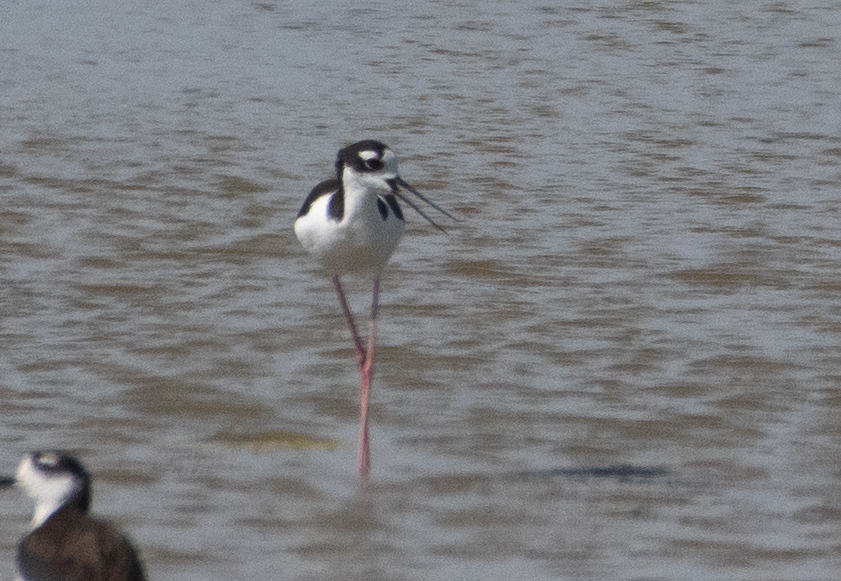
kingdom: Animalia
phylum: Chordata
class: Aves
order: Charadriiformes
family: Recurvirostridae
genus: Himantopus
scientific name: Himantopus mexicanus
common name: Black-necked stilt
